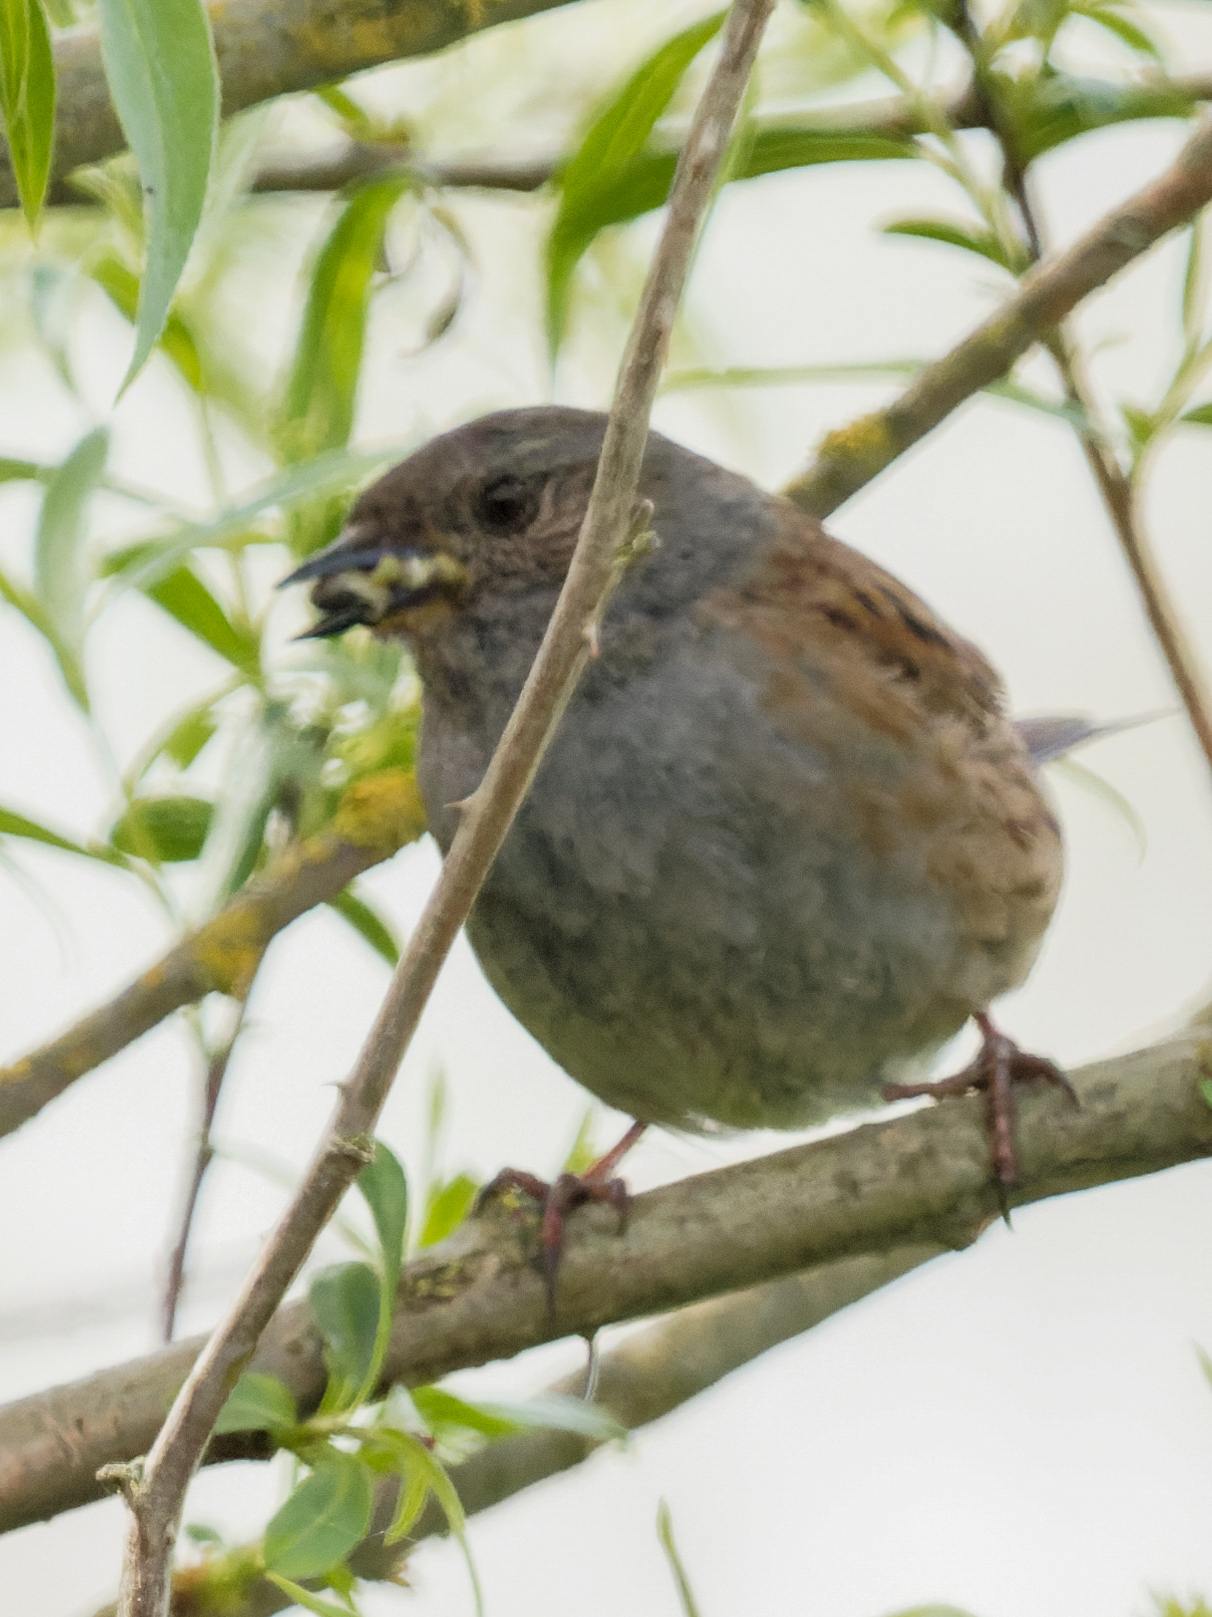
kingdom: Animalia
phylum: Chordata
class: Aves
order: Passeriformes
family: Prunellidae
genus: Prunella
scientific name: Prunella modularis
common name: Dunnock
